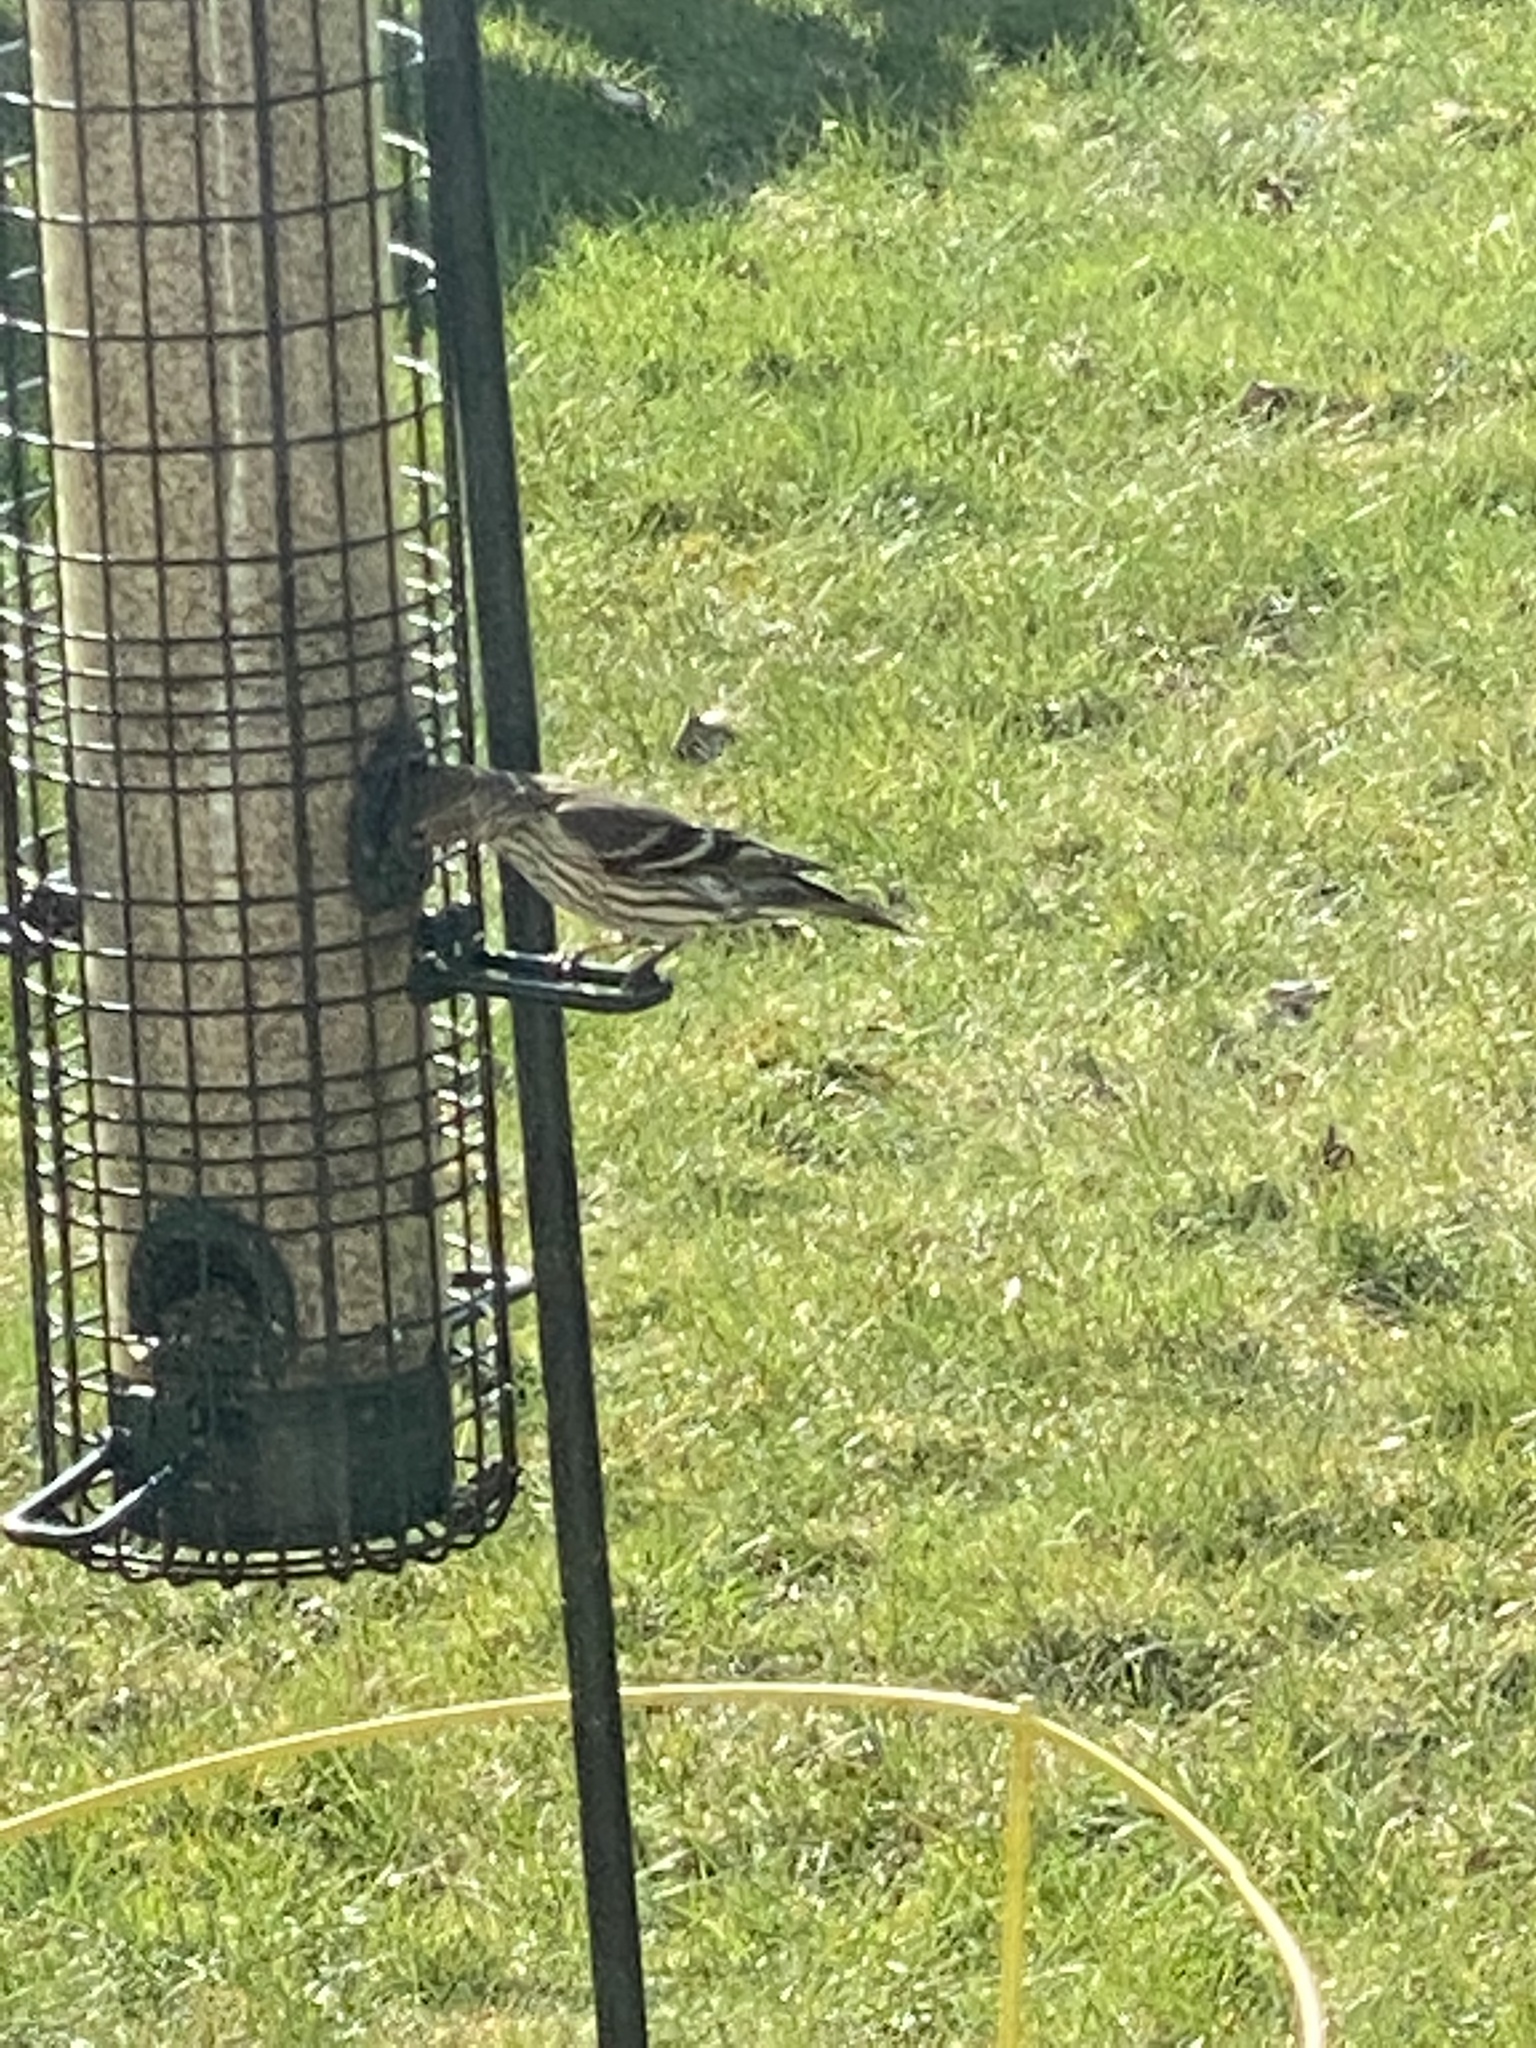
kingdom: Animalia
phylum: Chordata
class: Aves
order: Passeriformes
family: Fringillidae
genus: Spinus
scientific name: Spinus pinus
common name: Pine siskin
